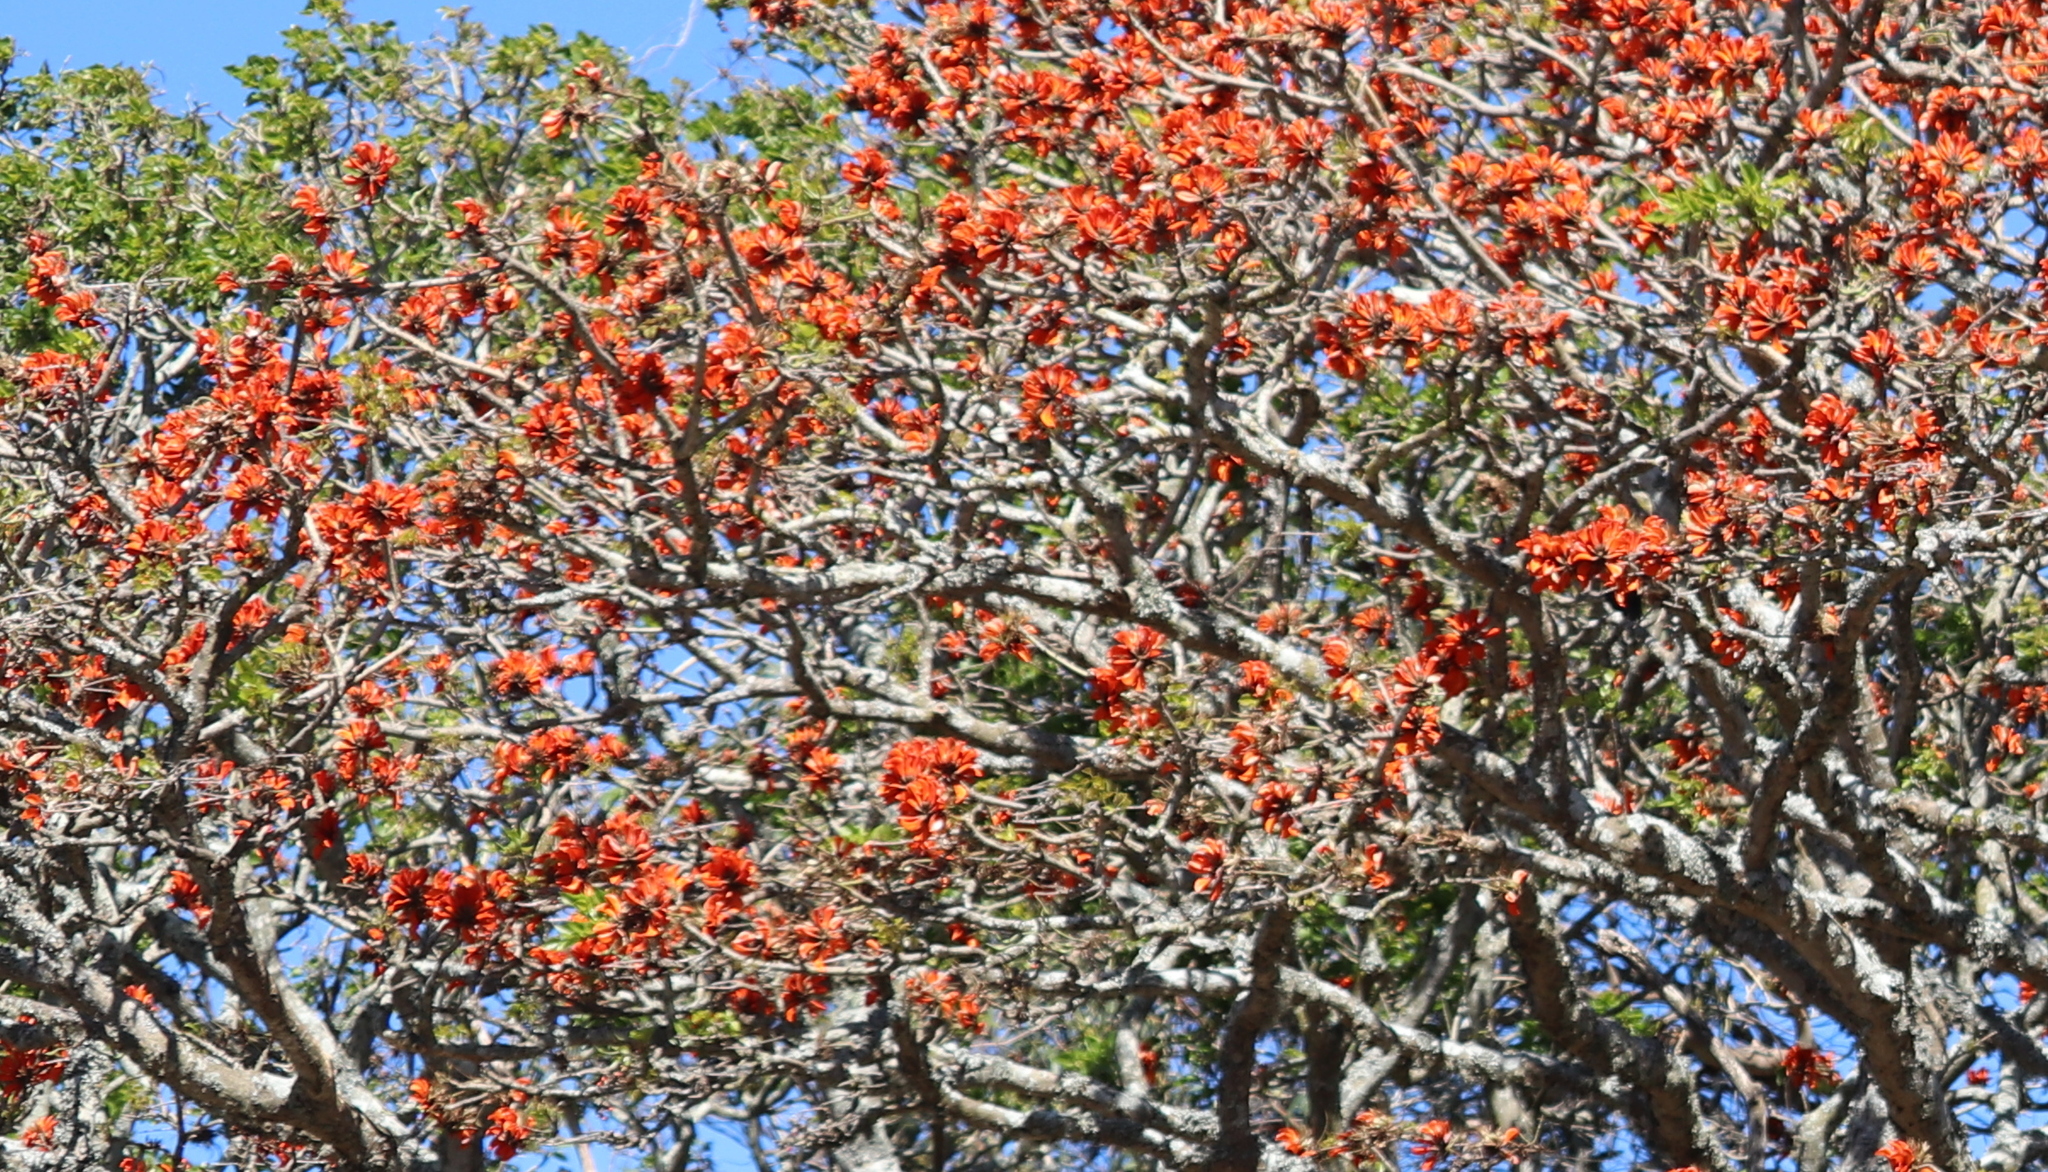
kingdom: Plantae
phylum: Tracheophyta
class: Magnoliopsida
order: Fabales
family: Fabaceae
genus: Erythrina
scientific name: Erythrina caffra
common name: Coast coral tree
